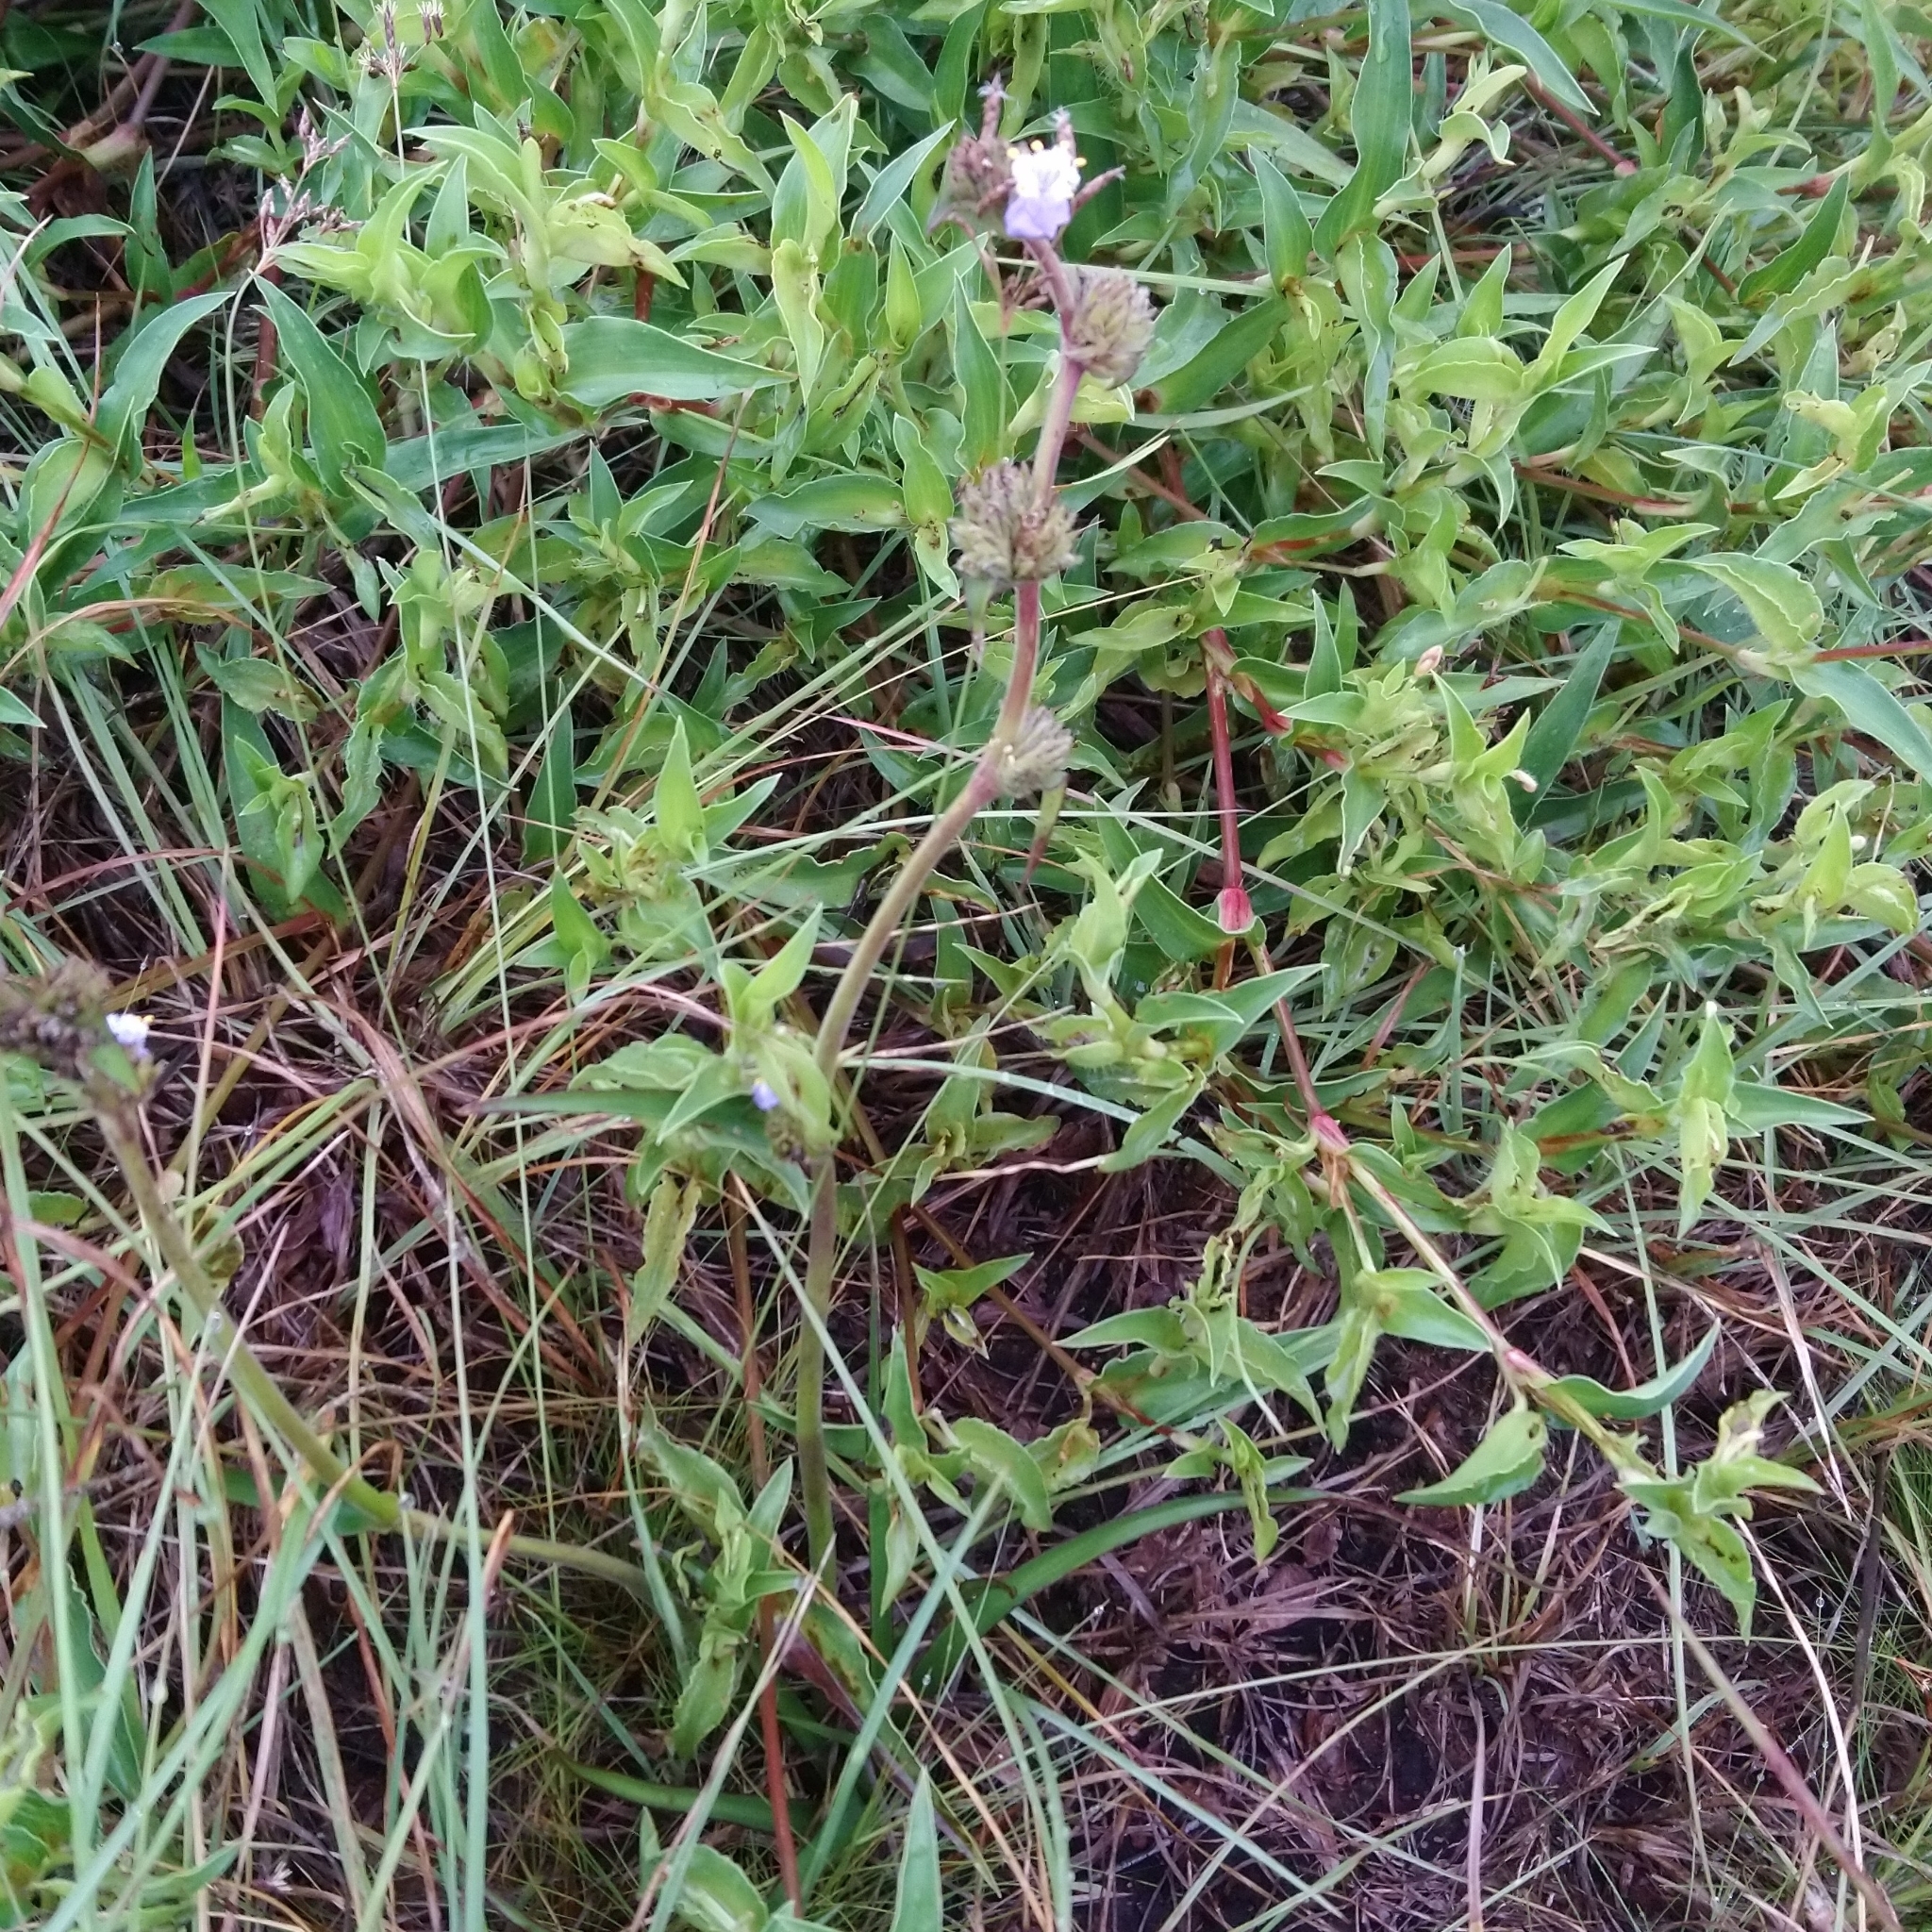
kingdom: Plantae
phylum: Tracheophyta
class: Liliopsida
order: Commelinales
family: Commelinaceae
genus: Cyanotis
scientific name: Cyanotis speciosa
